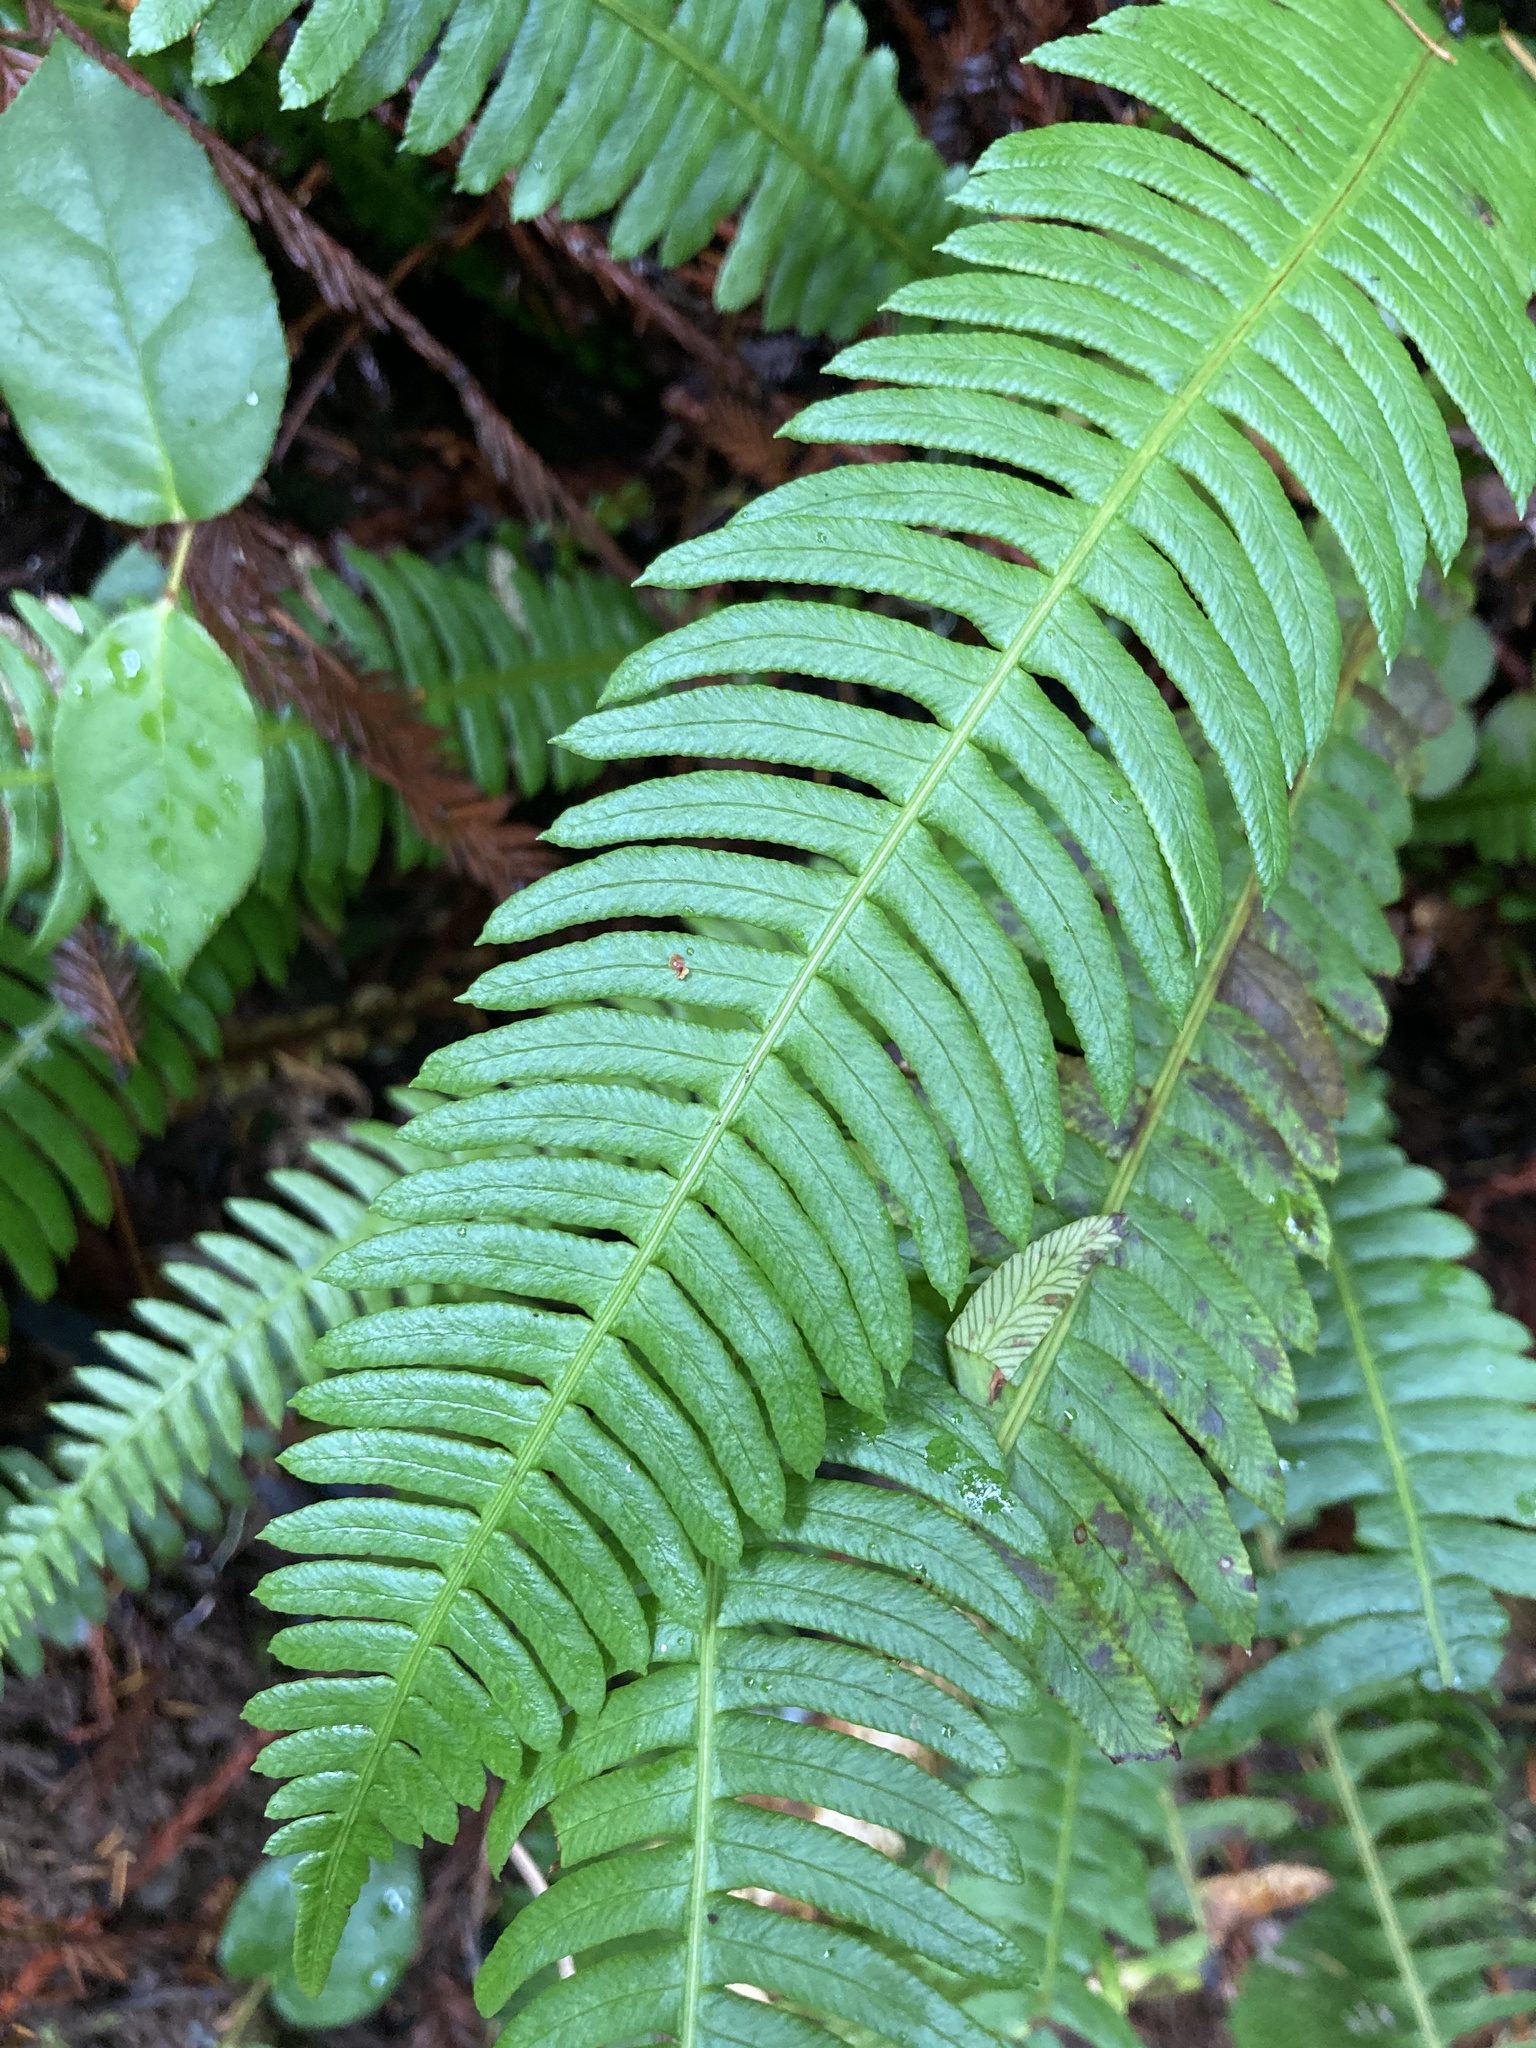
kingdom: Plantae
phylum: Tracheophyta
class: Polypodiopsida
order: Polypodiales
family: Blechnaceae
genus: Struthiopteris
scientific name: Struthiopteris spicant
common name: Deer fern
